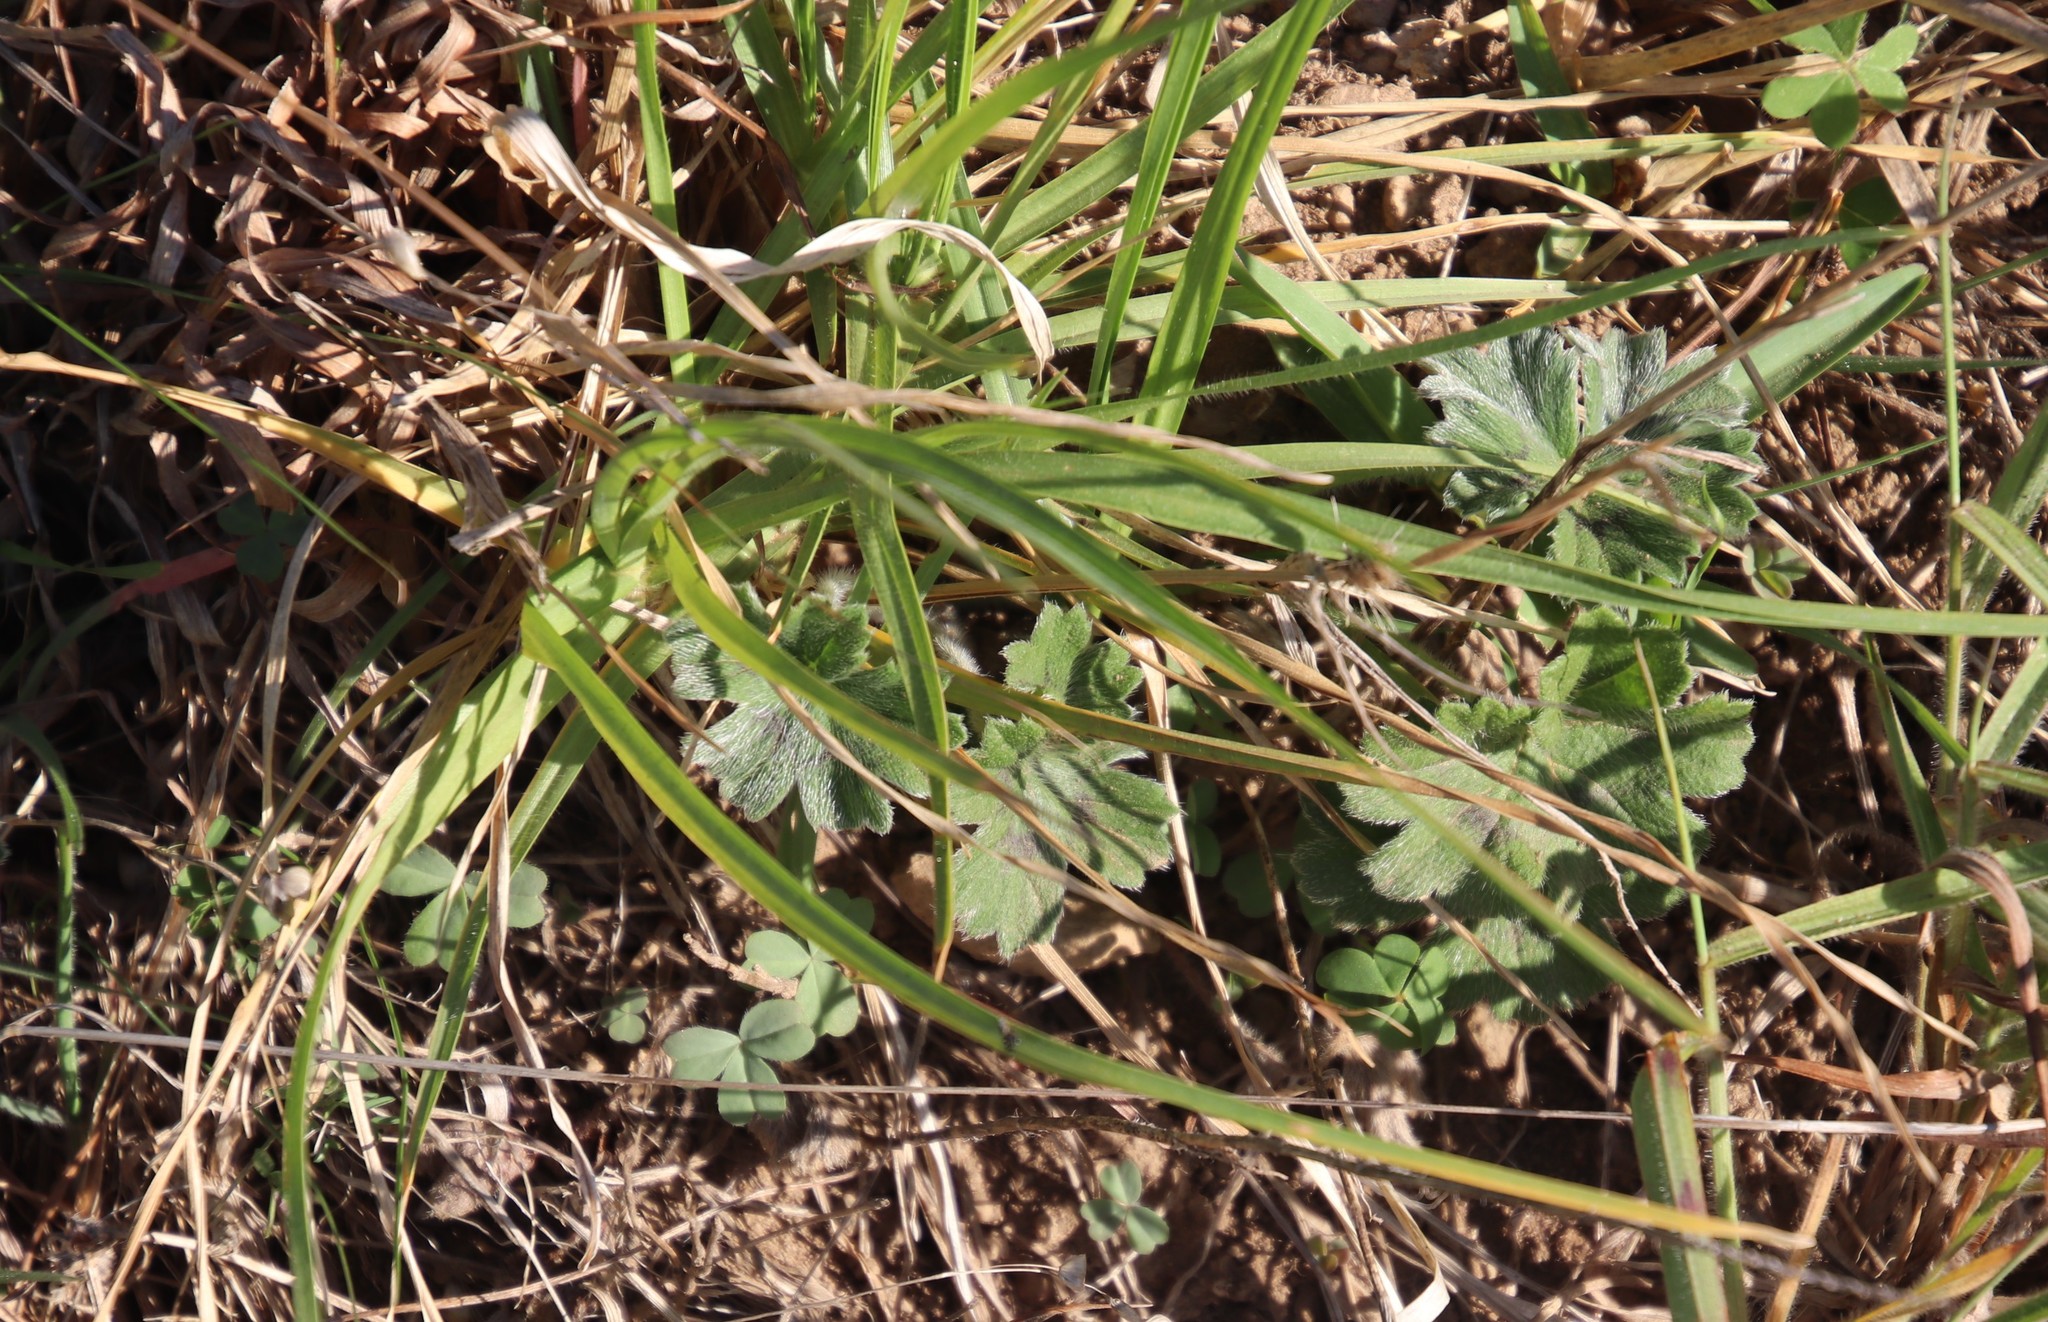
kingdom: Plantae
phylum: Tracheophyta
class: Magnoliopsida
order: Geraniales
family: Geraniaceae
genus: Pelargonium
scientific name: Pelargonium alchemilloides
